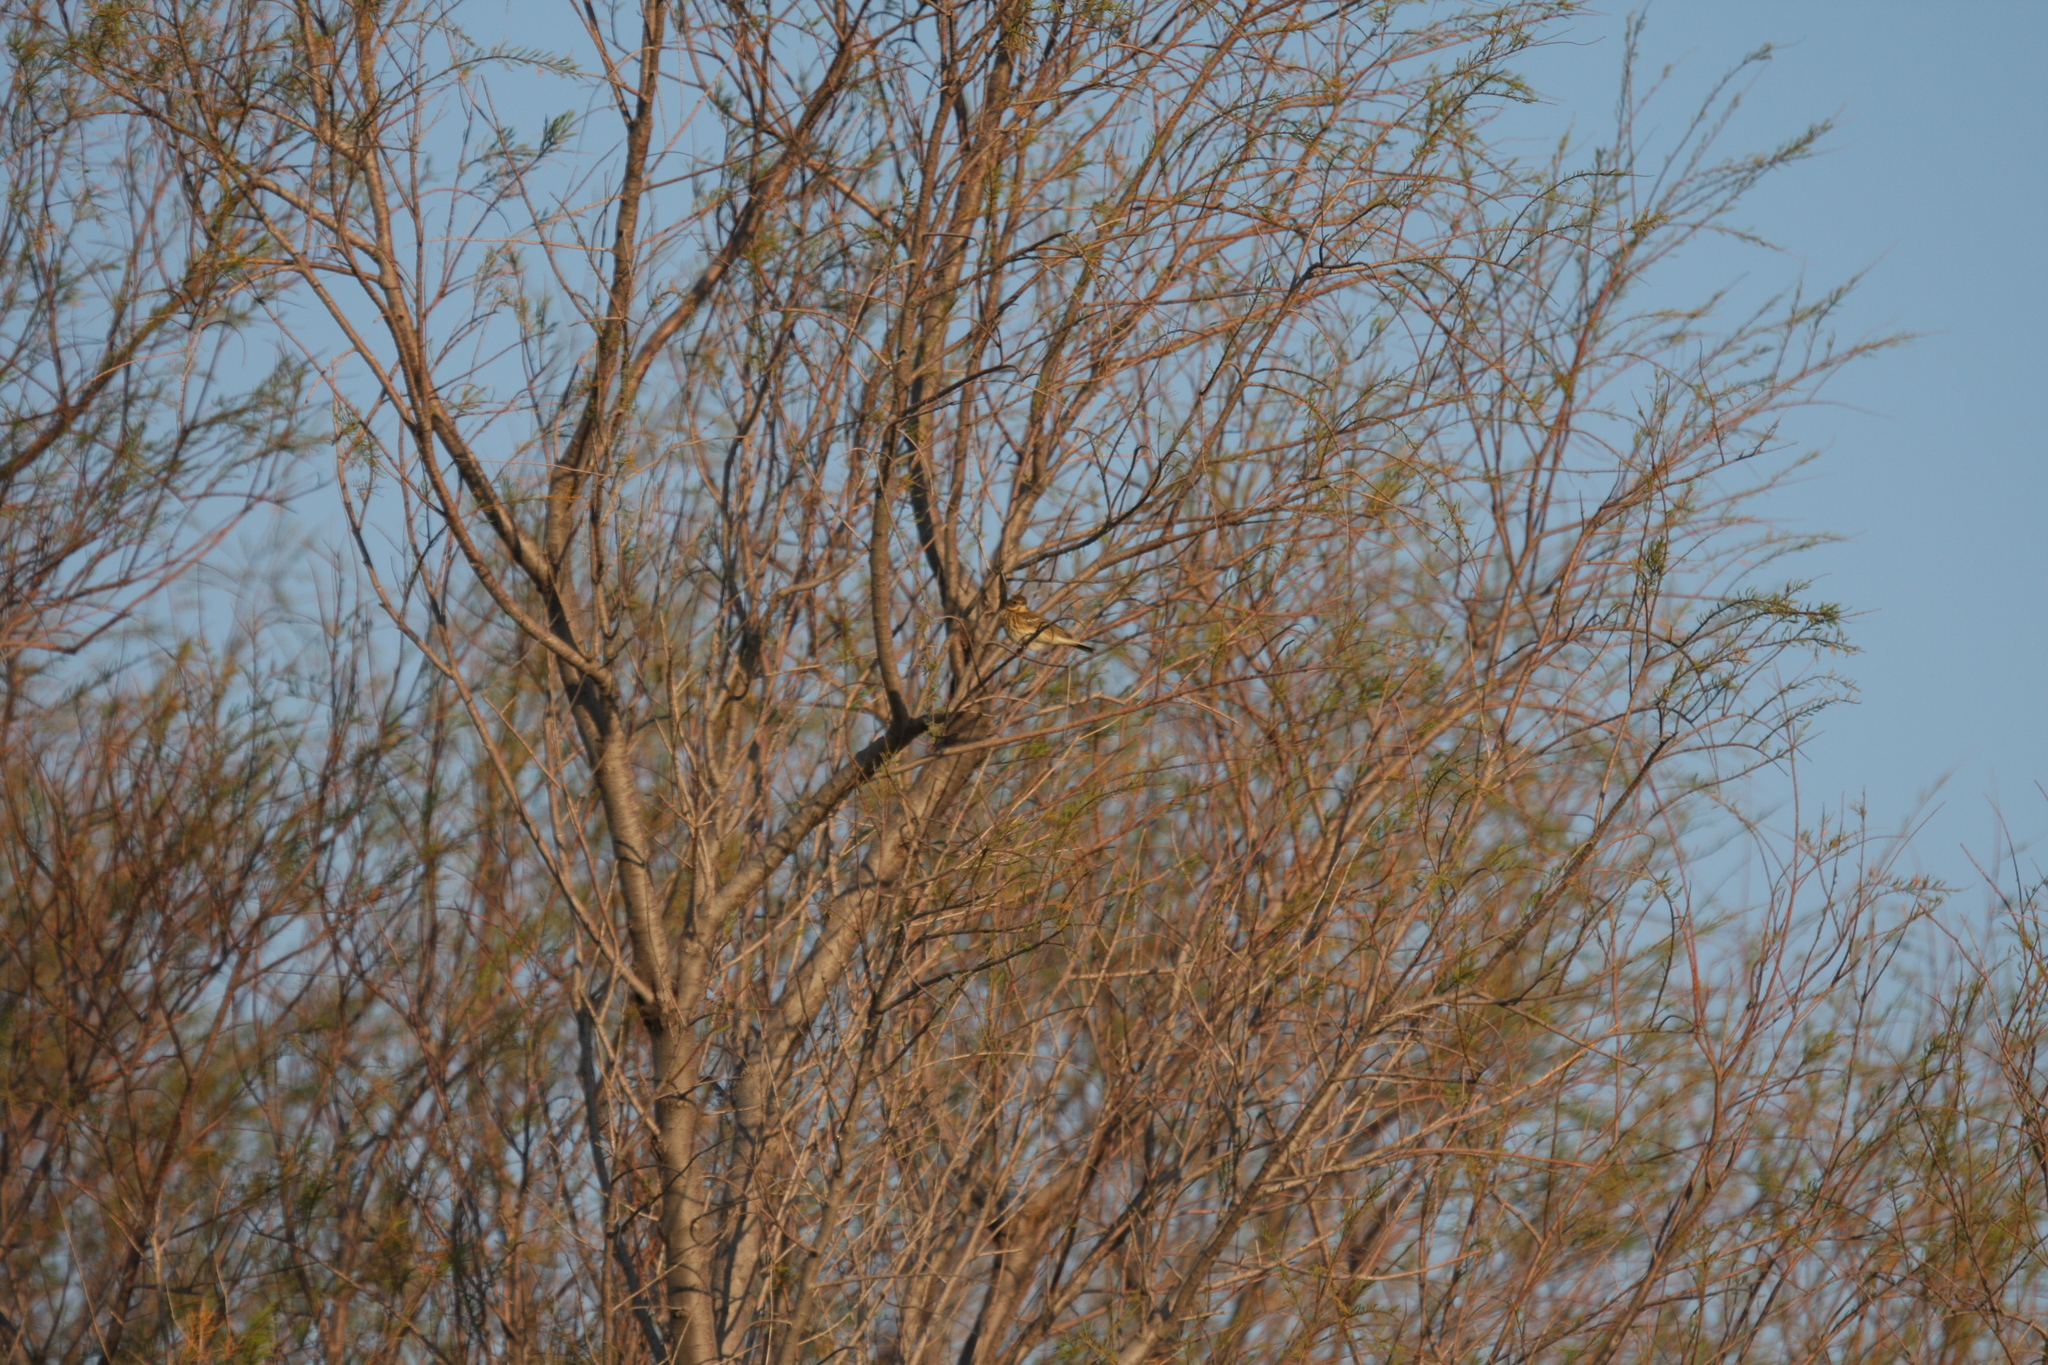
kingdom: Animalia
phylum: Chordata
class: Aves
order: Passeriformes
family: Motacillidae
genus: Anthus
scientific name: Anthus trivialis
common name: Tree pipit
